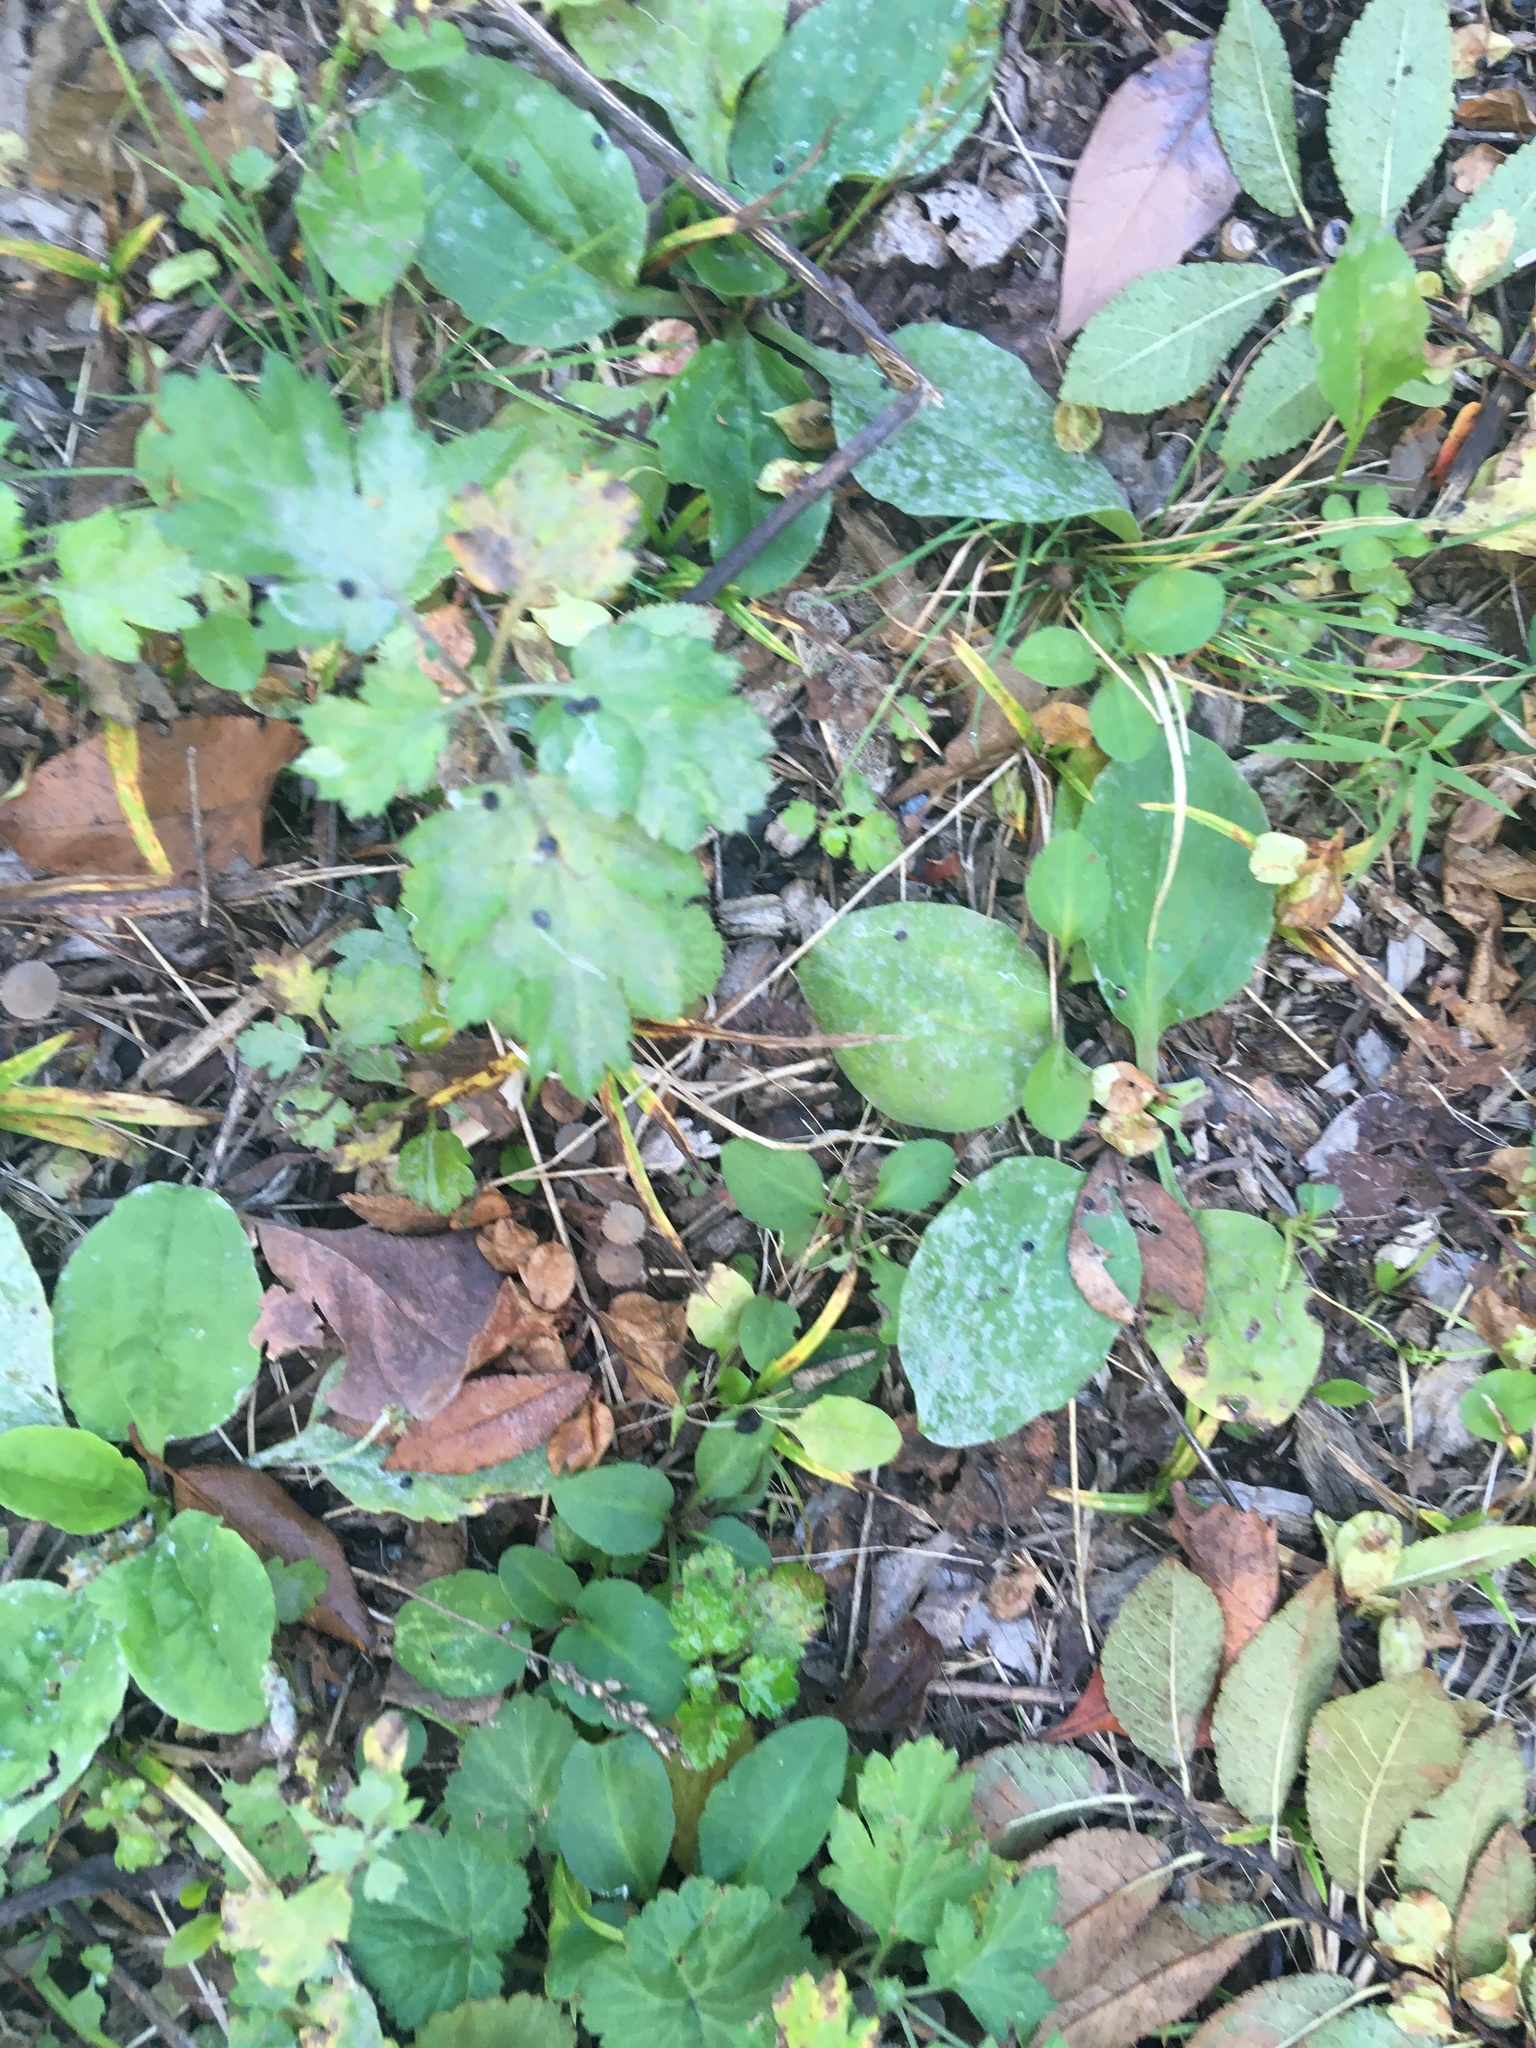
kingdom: Plantae
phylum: Tracheophyta
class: Magnoliopsida
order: Asterales
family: Asteraceae
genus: Artemisia
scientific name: Artemisia vulgaris
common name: Mugwort
